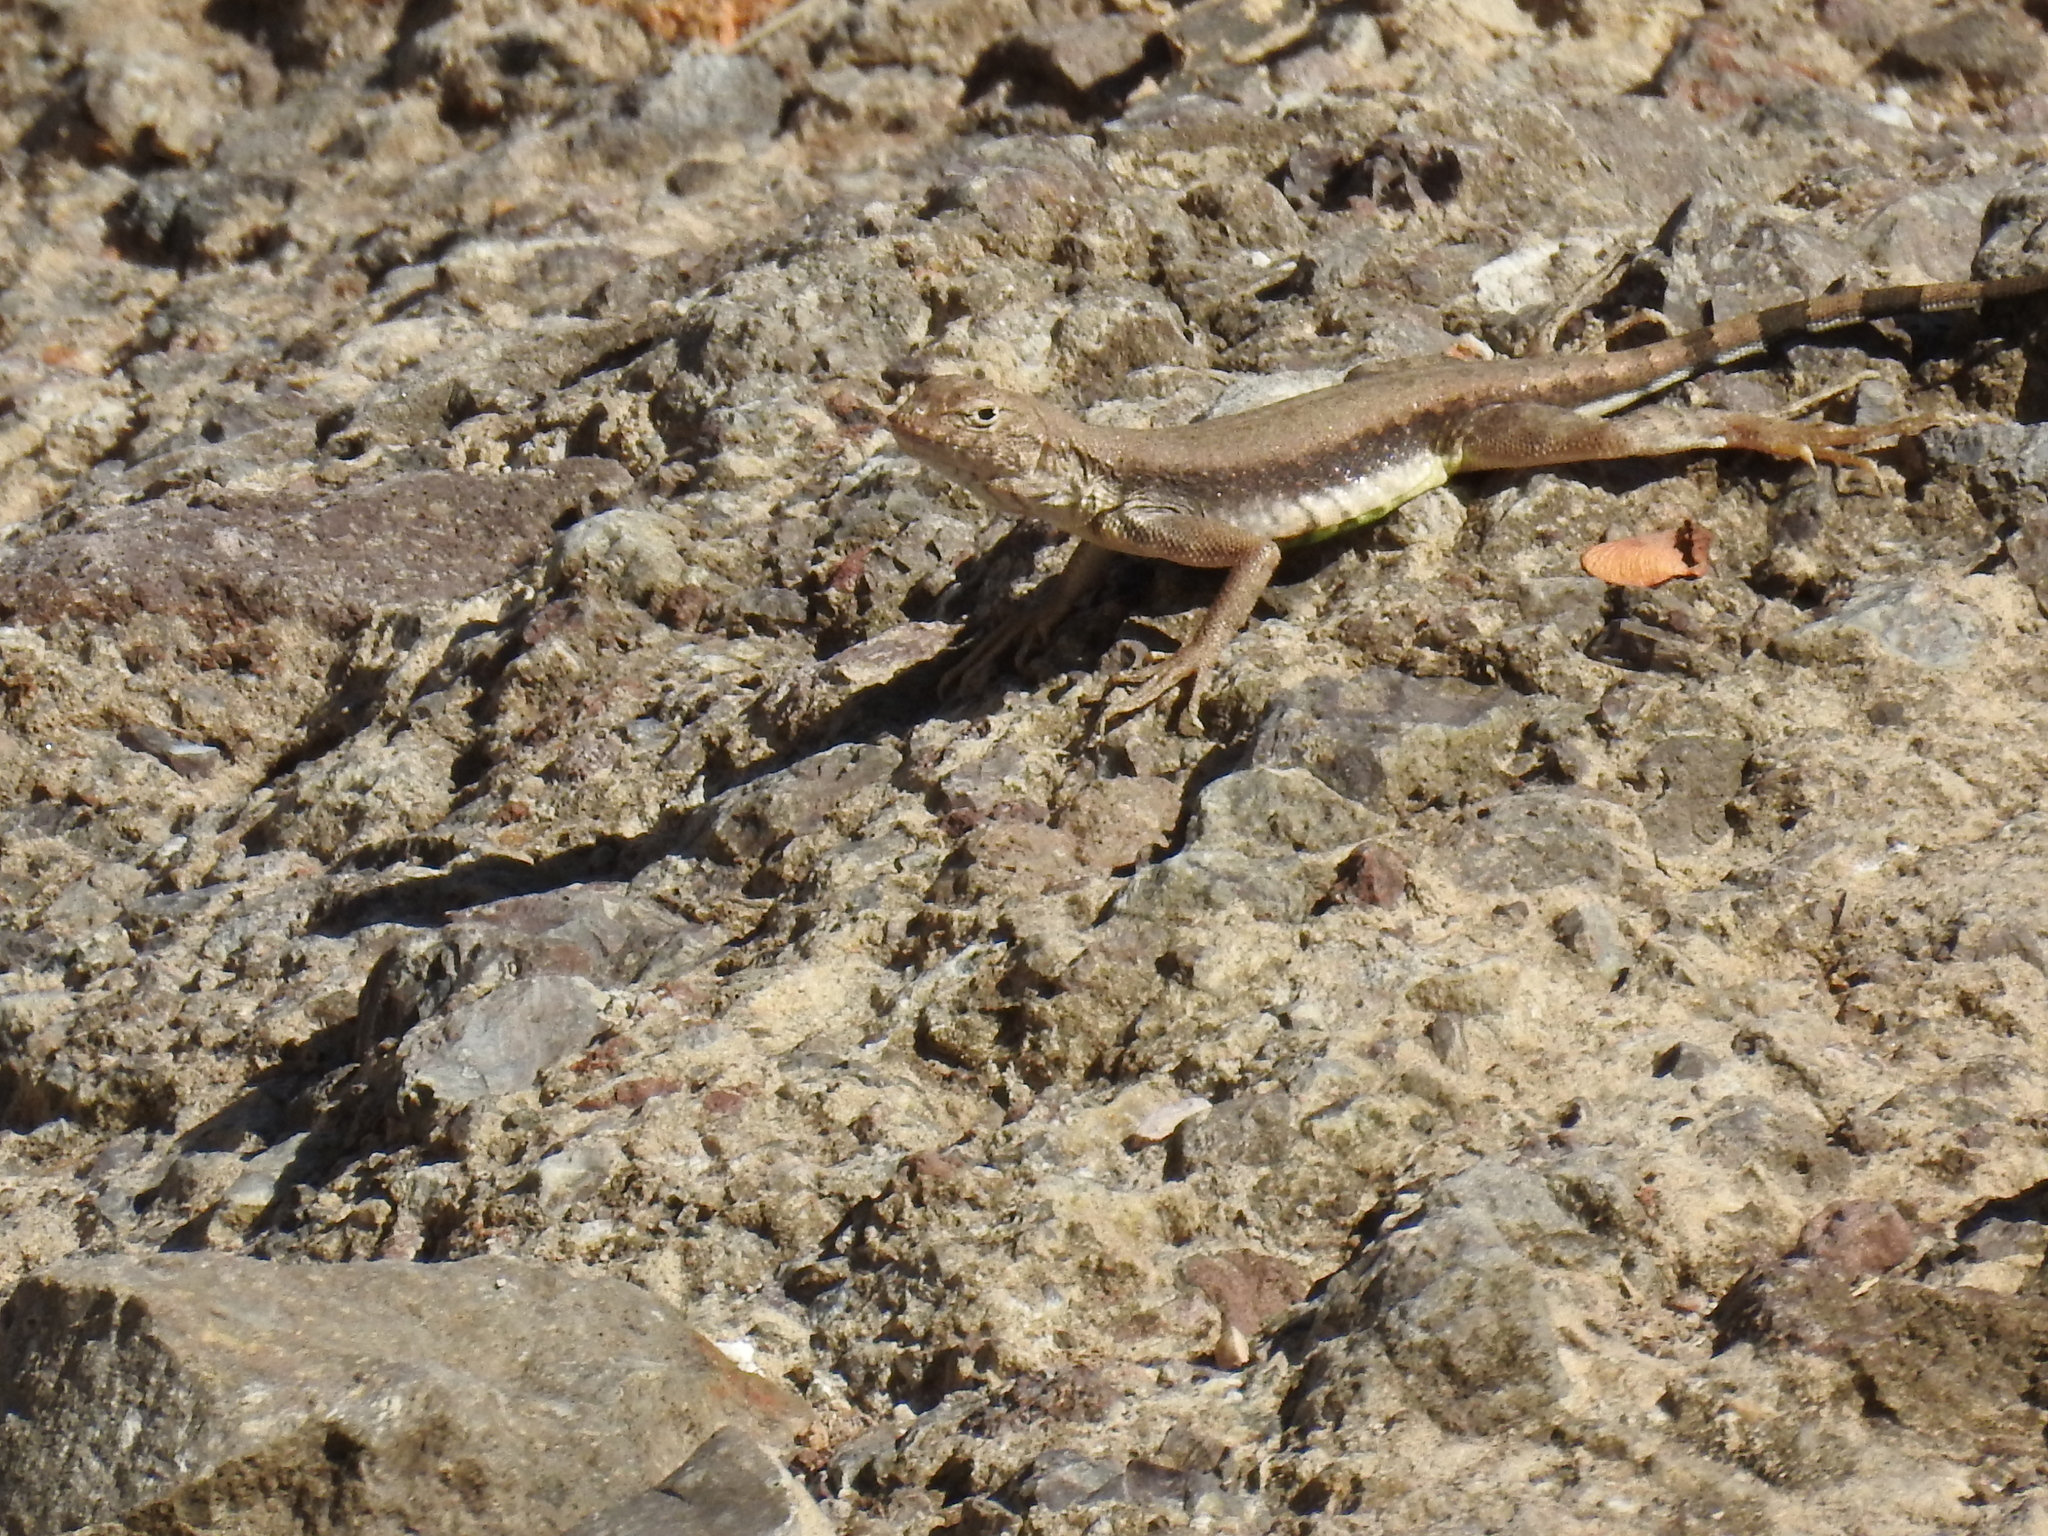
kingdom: Animalia
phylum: Chordata
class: Squamata
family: Phrynosomatidae
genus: Callisaurus
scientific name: Callisaurus draconoides
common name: Zebra-tailed lizard
